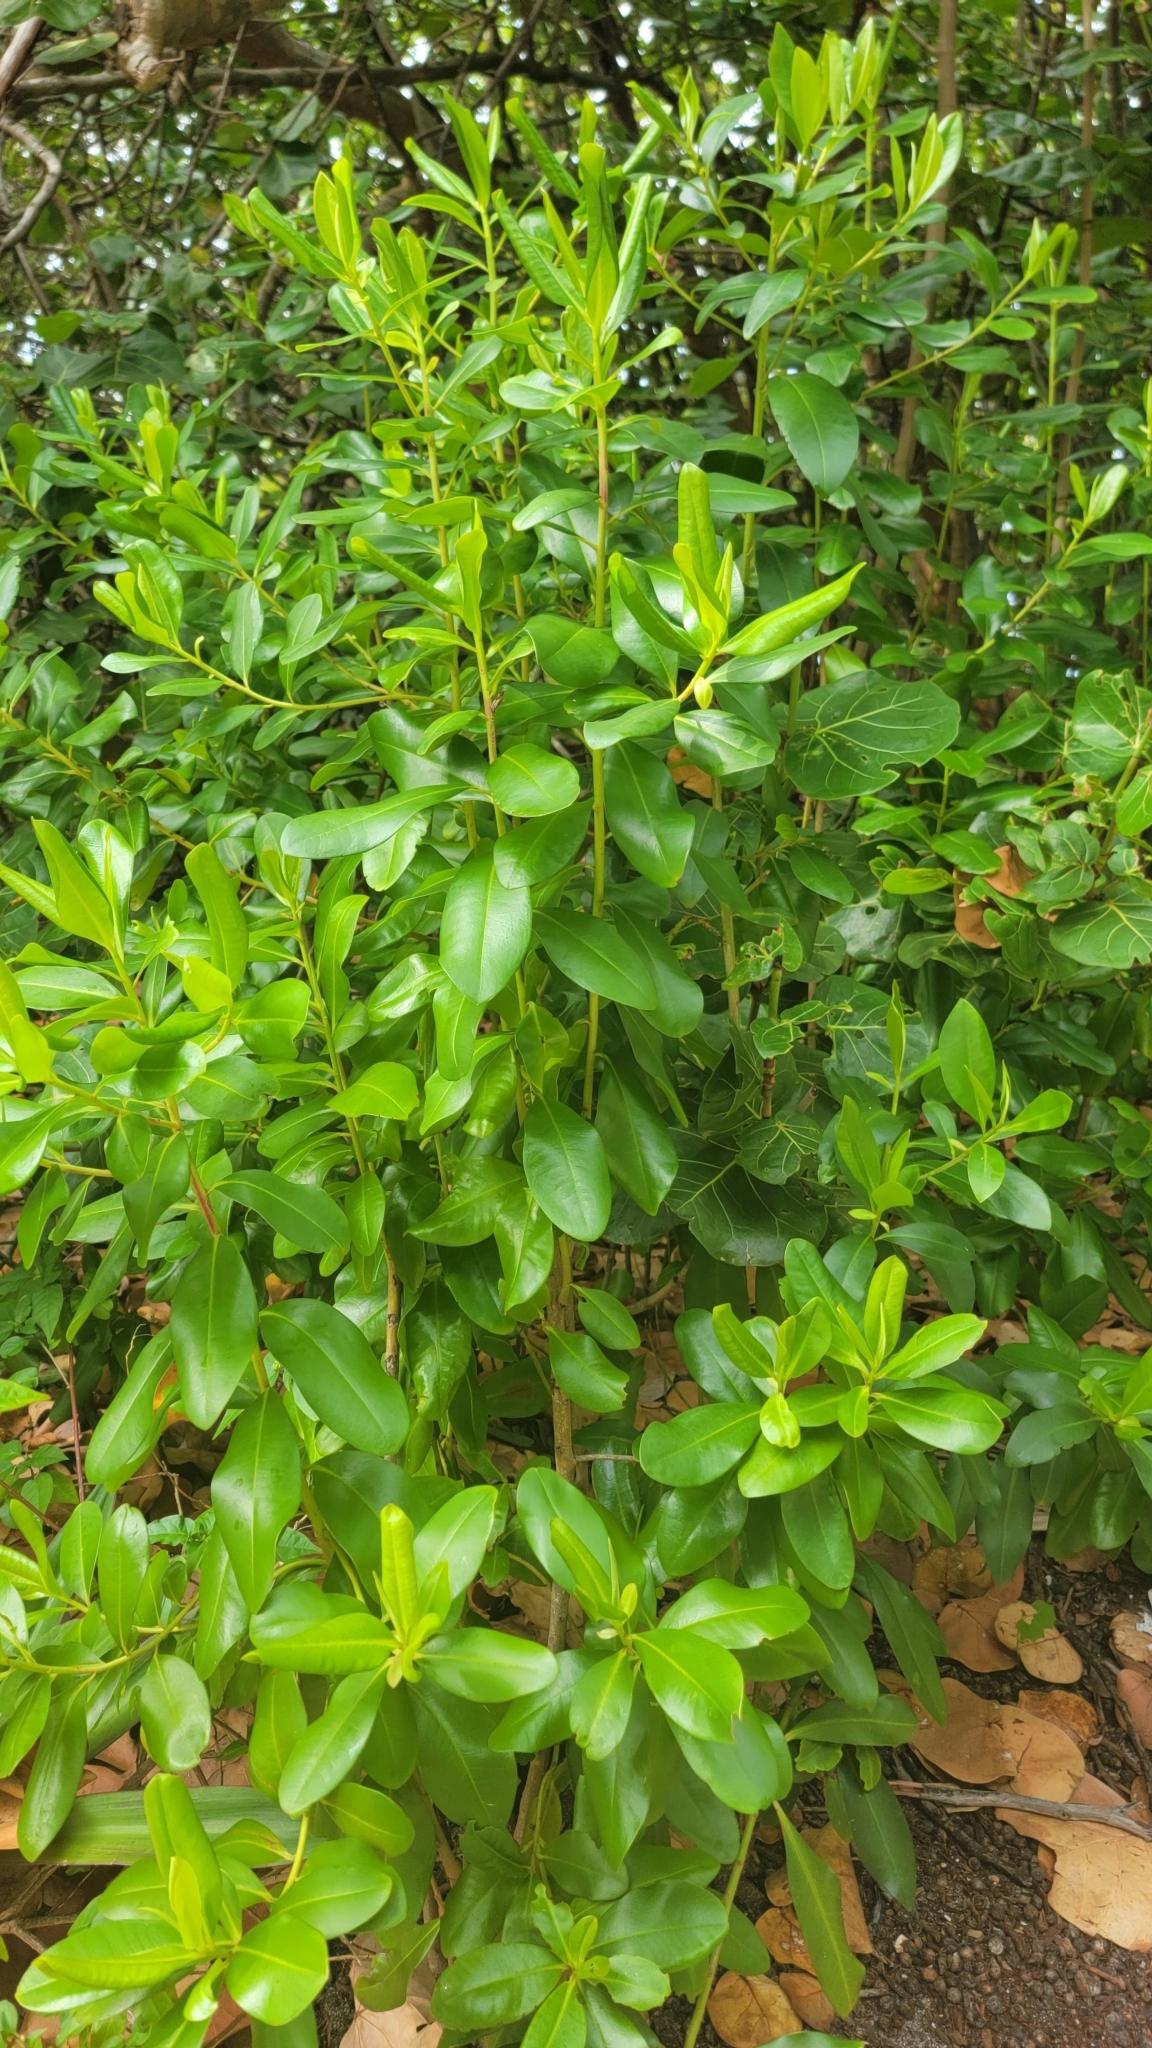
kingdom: Plantae
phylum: Tracheophyta
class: Magnoliopsida
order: Ericales
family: Primulaceae
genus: Myrsine
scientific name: Myrsine floridana
